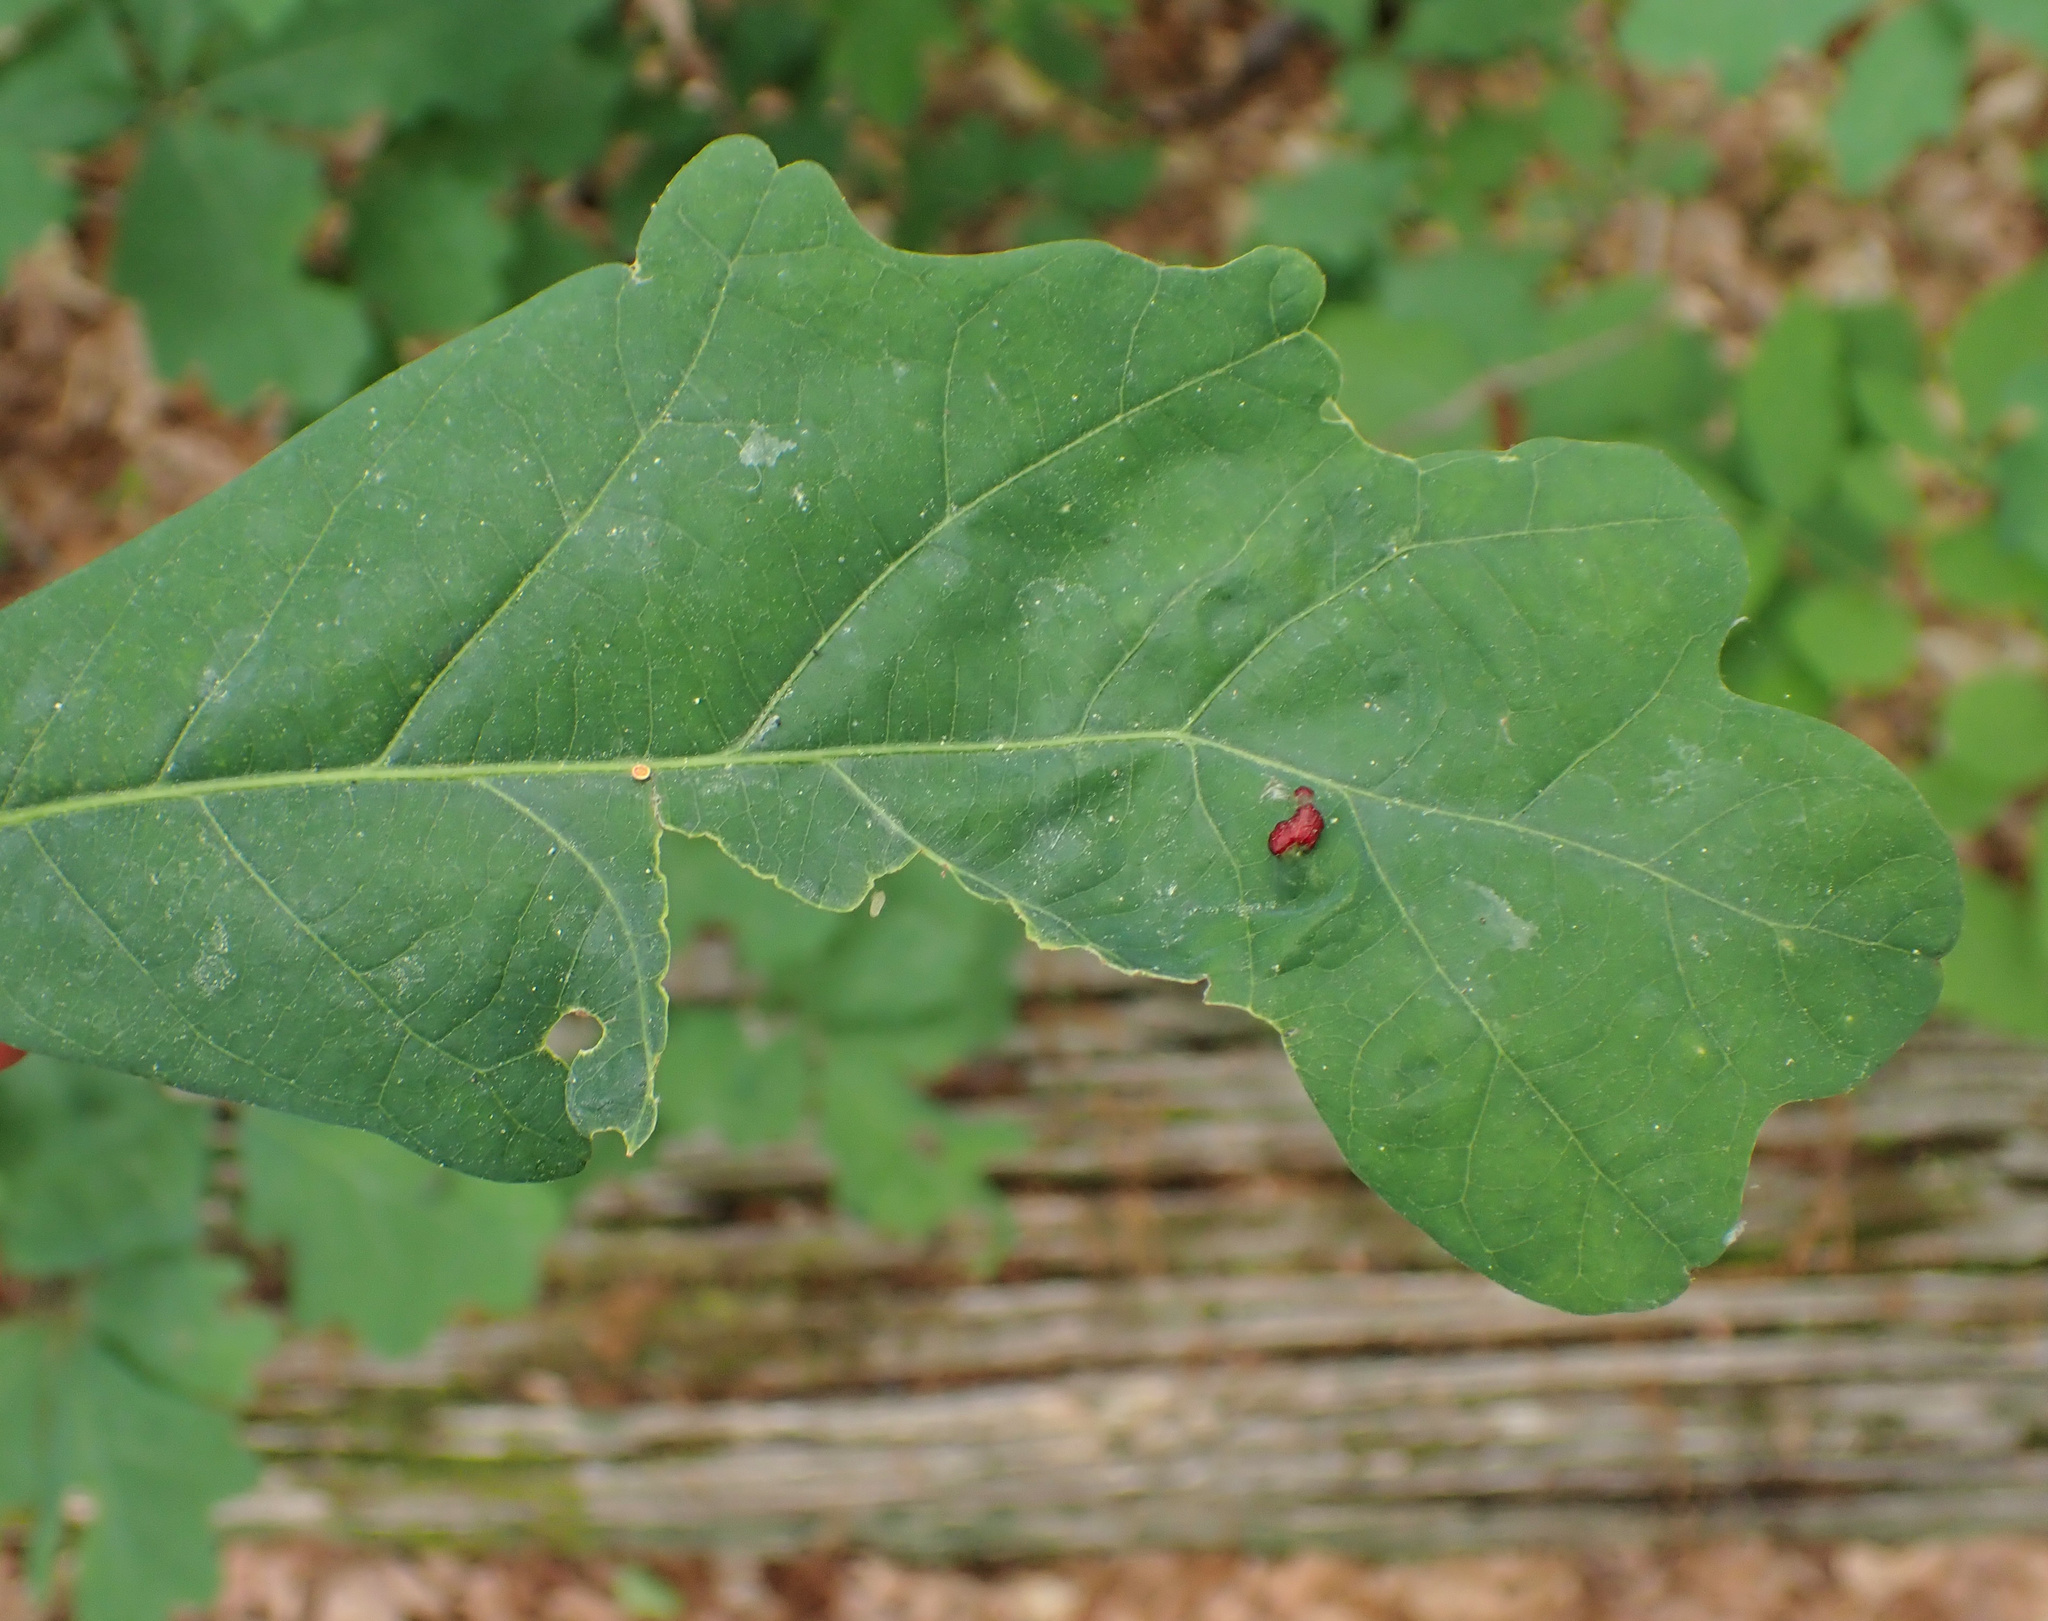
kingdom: Animalia
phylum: Arthropoda
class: Arachnida
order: Trombidiformes
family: Eriophyidae
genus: Aceria
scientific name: Aceria
